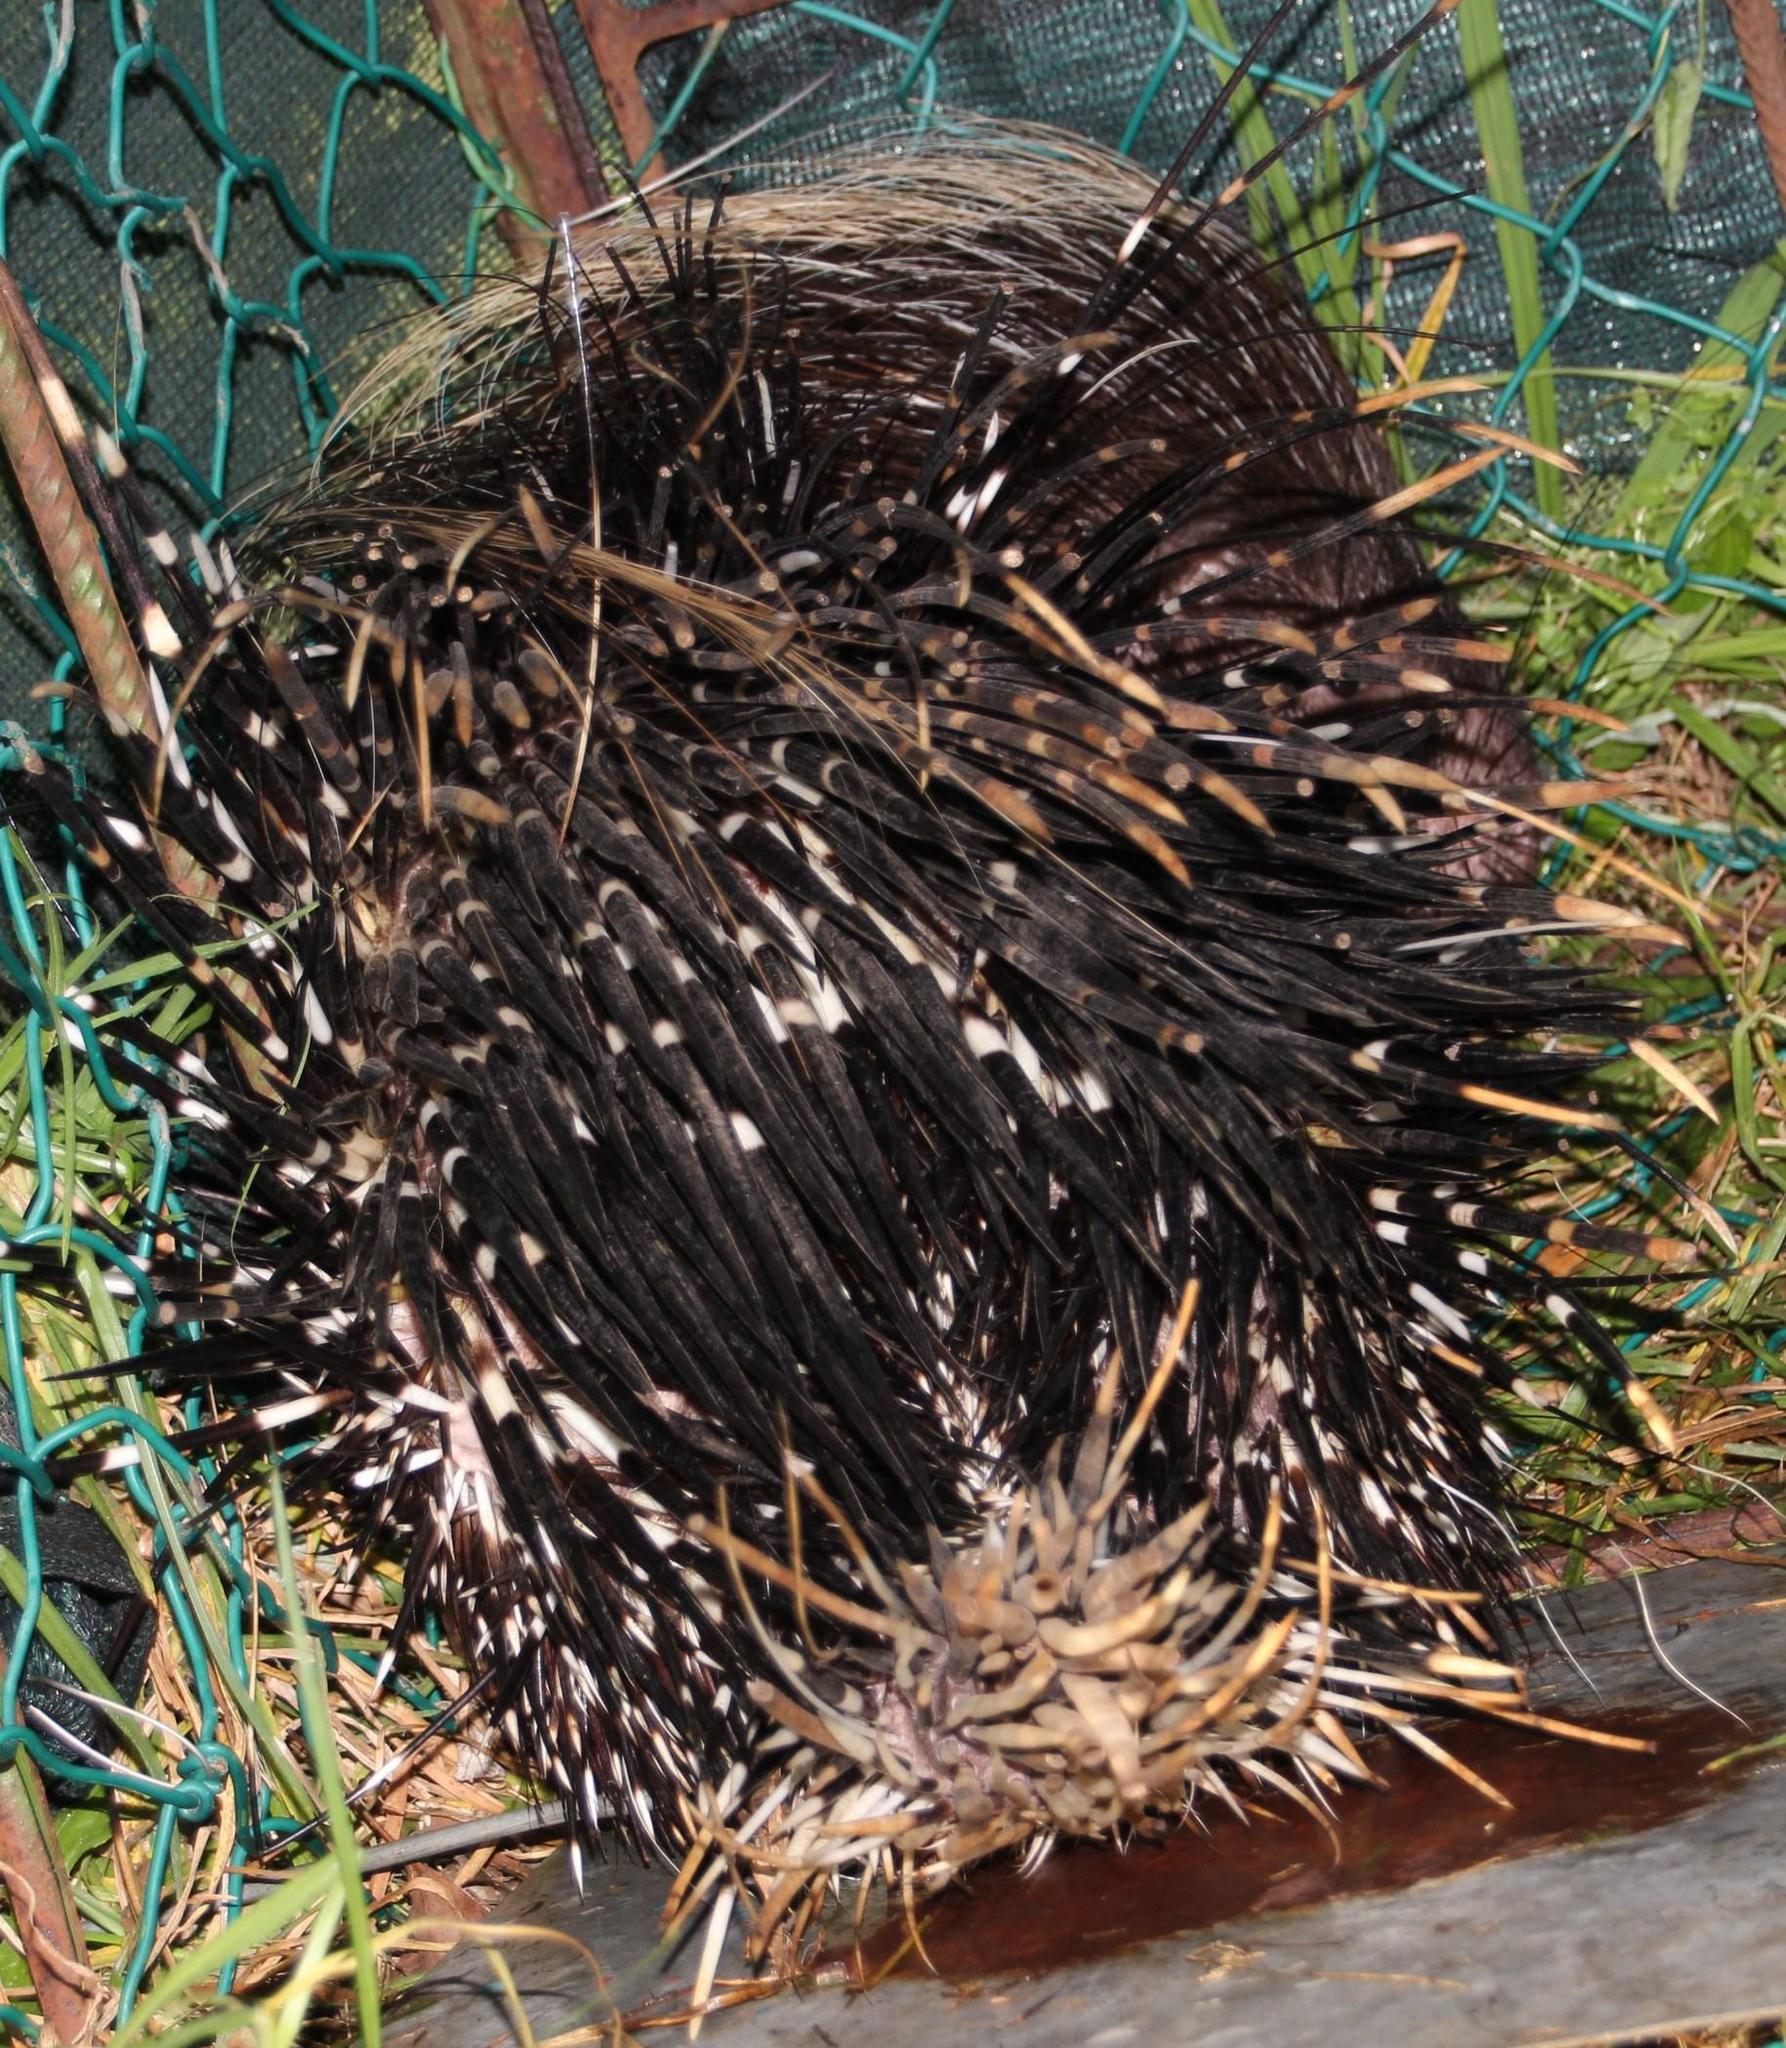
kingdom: Animalia
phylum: Chordata
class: Mammalia
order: Rodentia
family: Hystricidae
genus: Hystrix
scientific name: Hystrix africaeaustralis
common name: Cape porcupine
